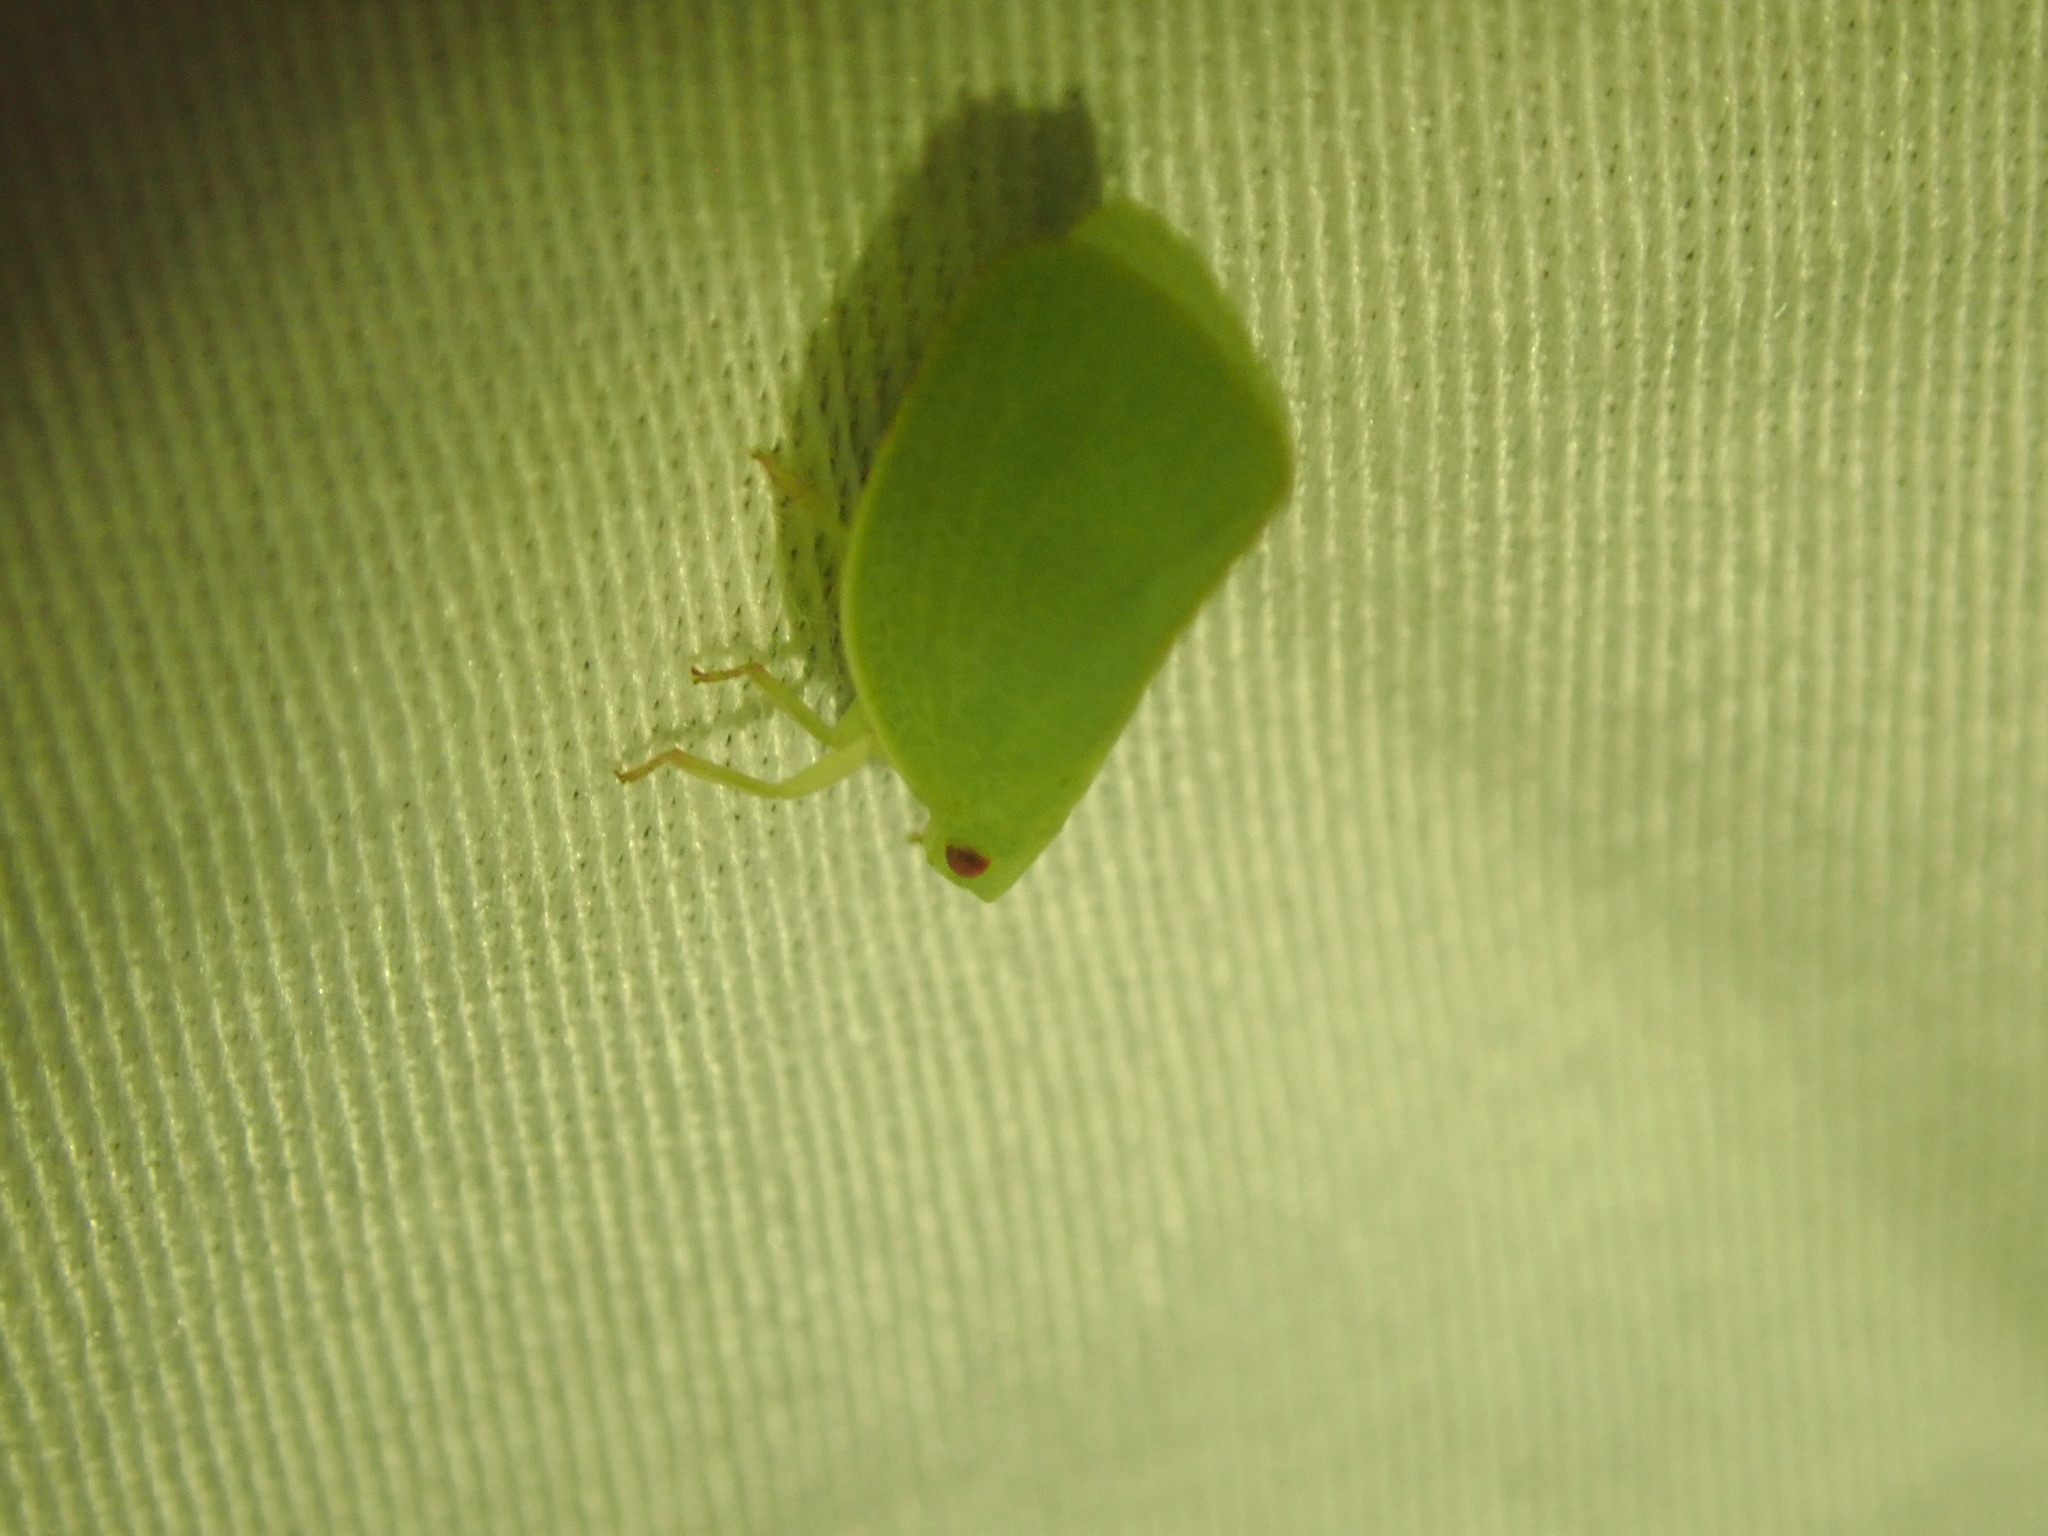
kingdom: Animalia
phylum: Arthropoda
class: Insecta
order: Hemiptera
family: Acanaloniidae
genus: Acanalonia
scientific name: Acanalonia conica
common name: Green cone-headed planthopper
